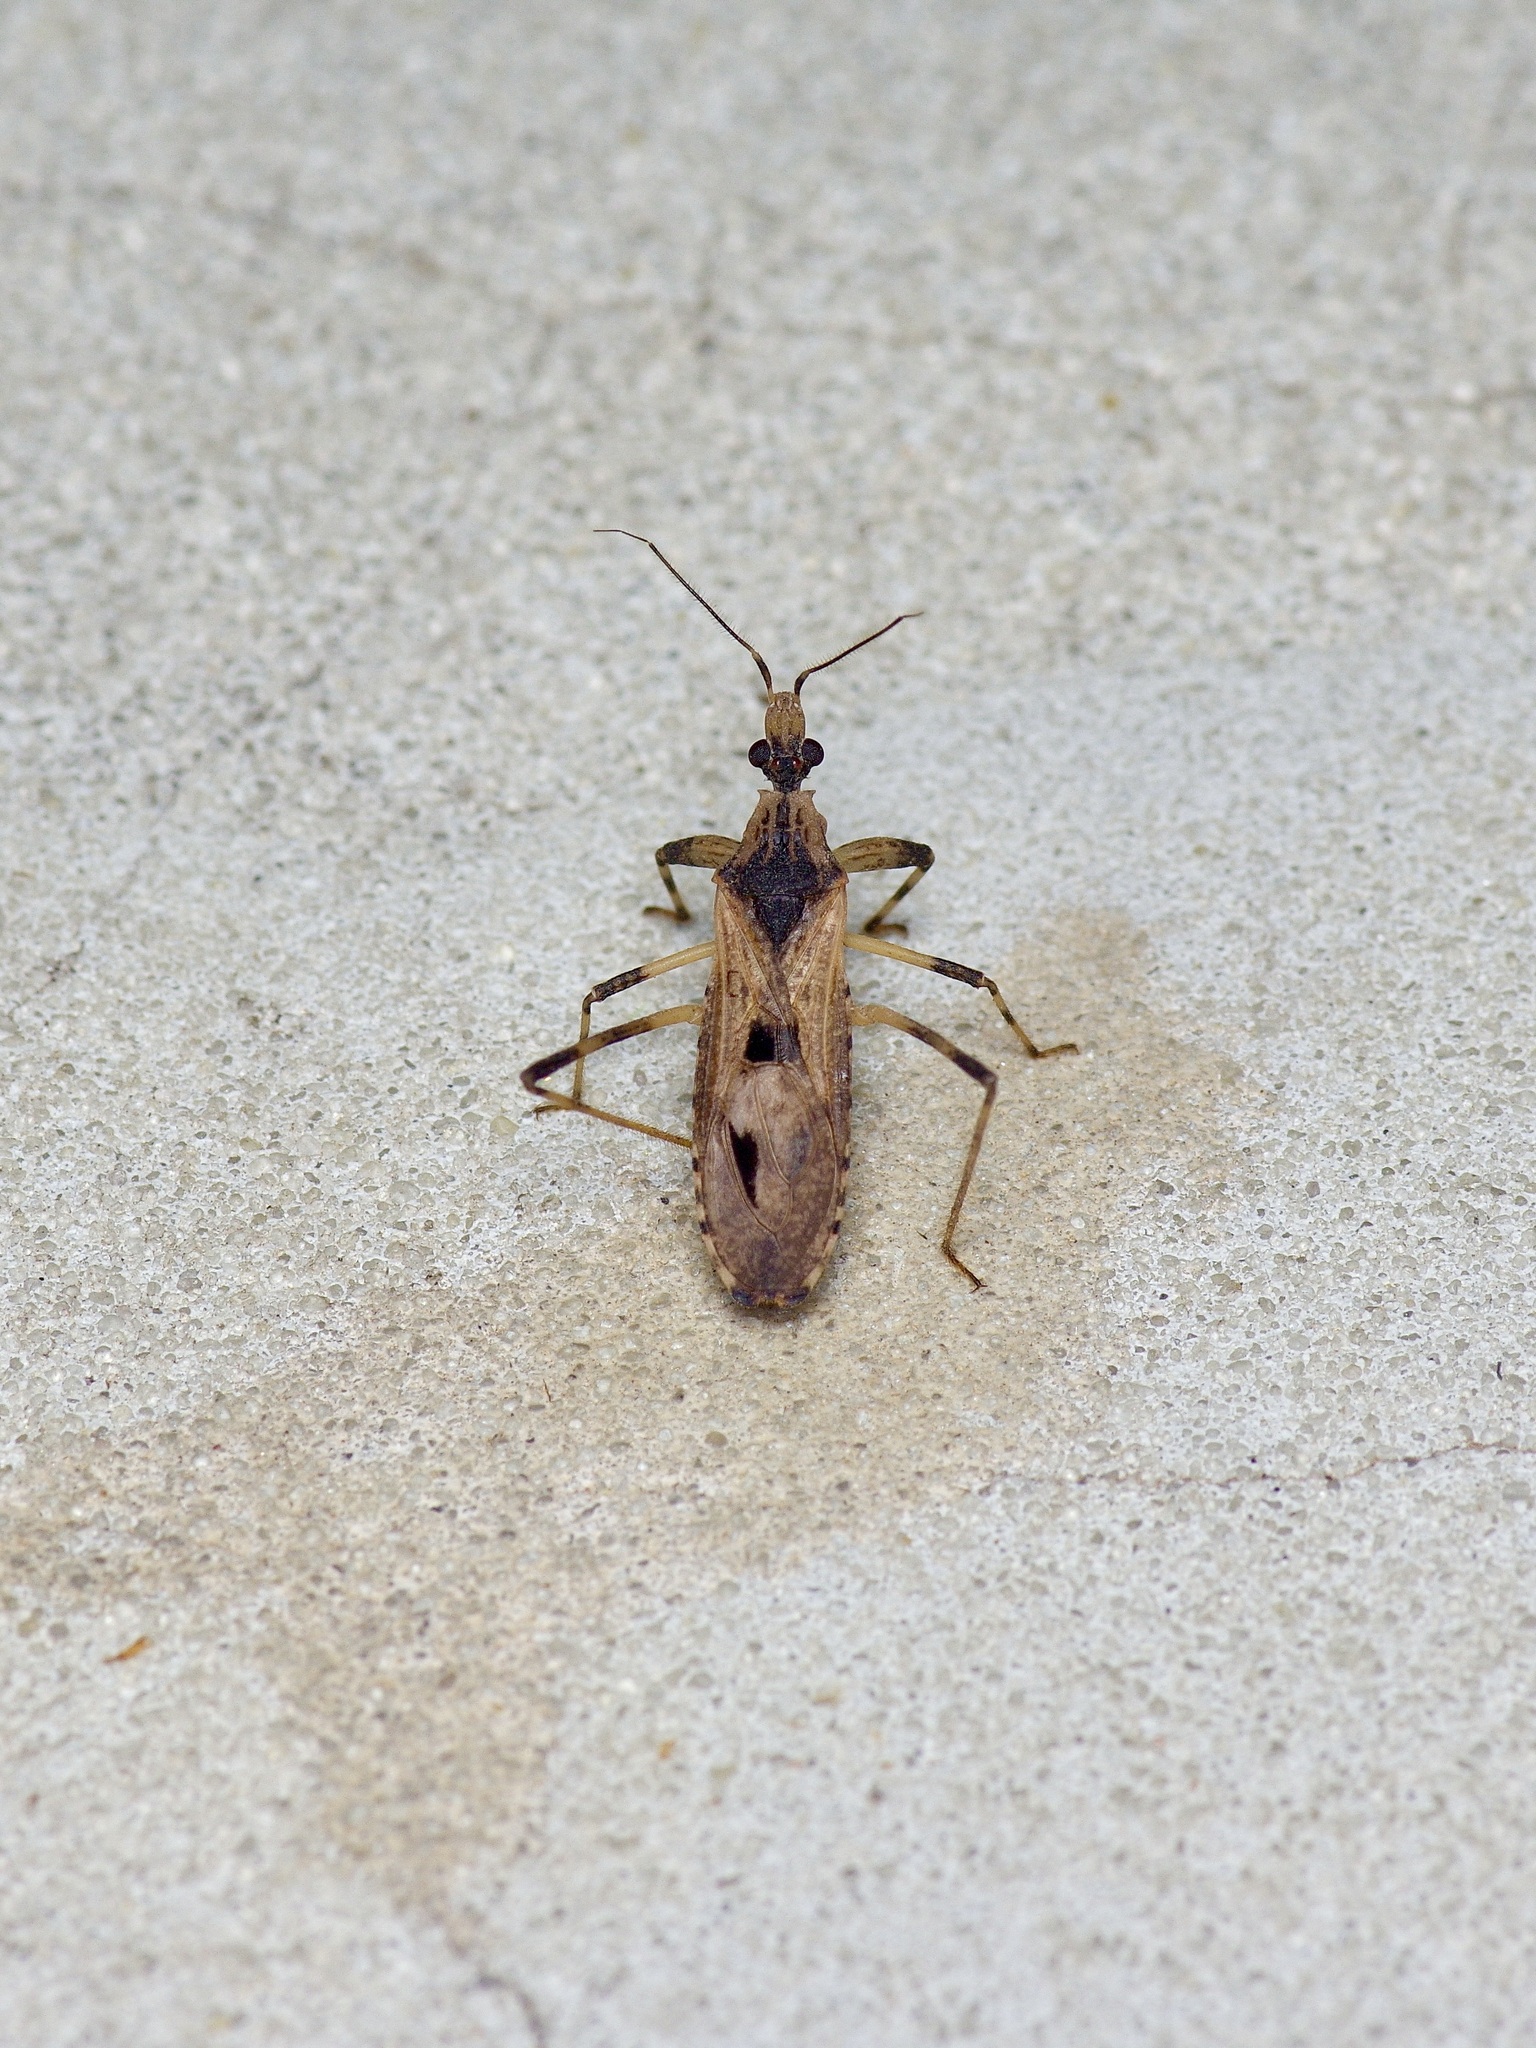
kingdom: Animalia
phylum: Arthropoda
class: Insecta
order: Hemiptera
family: Reduviidae
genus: Oncocephalus
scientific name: Oncocephalus geniculatus
